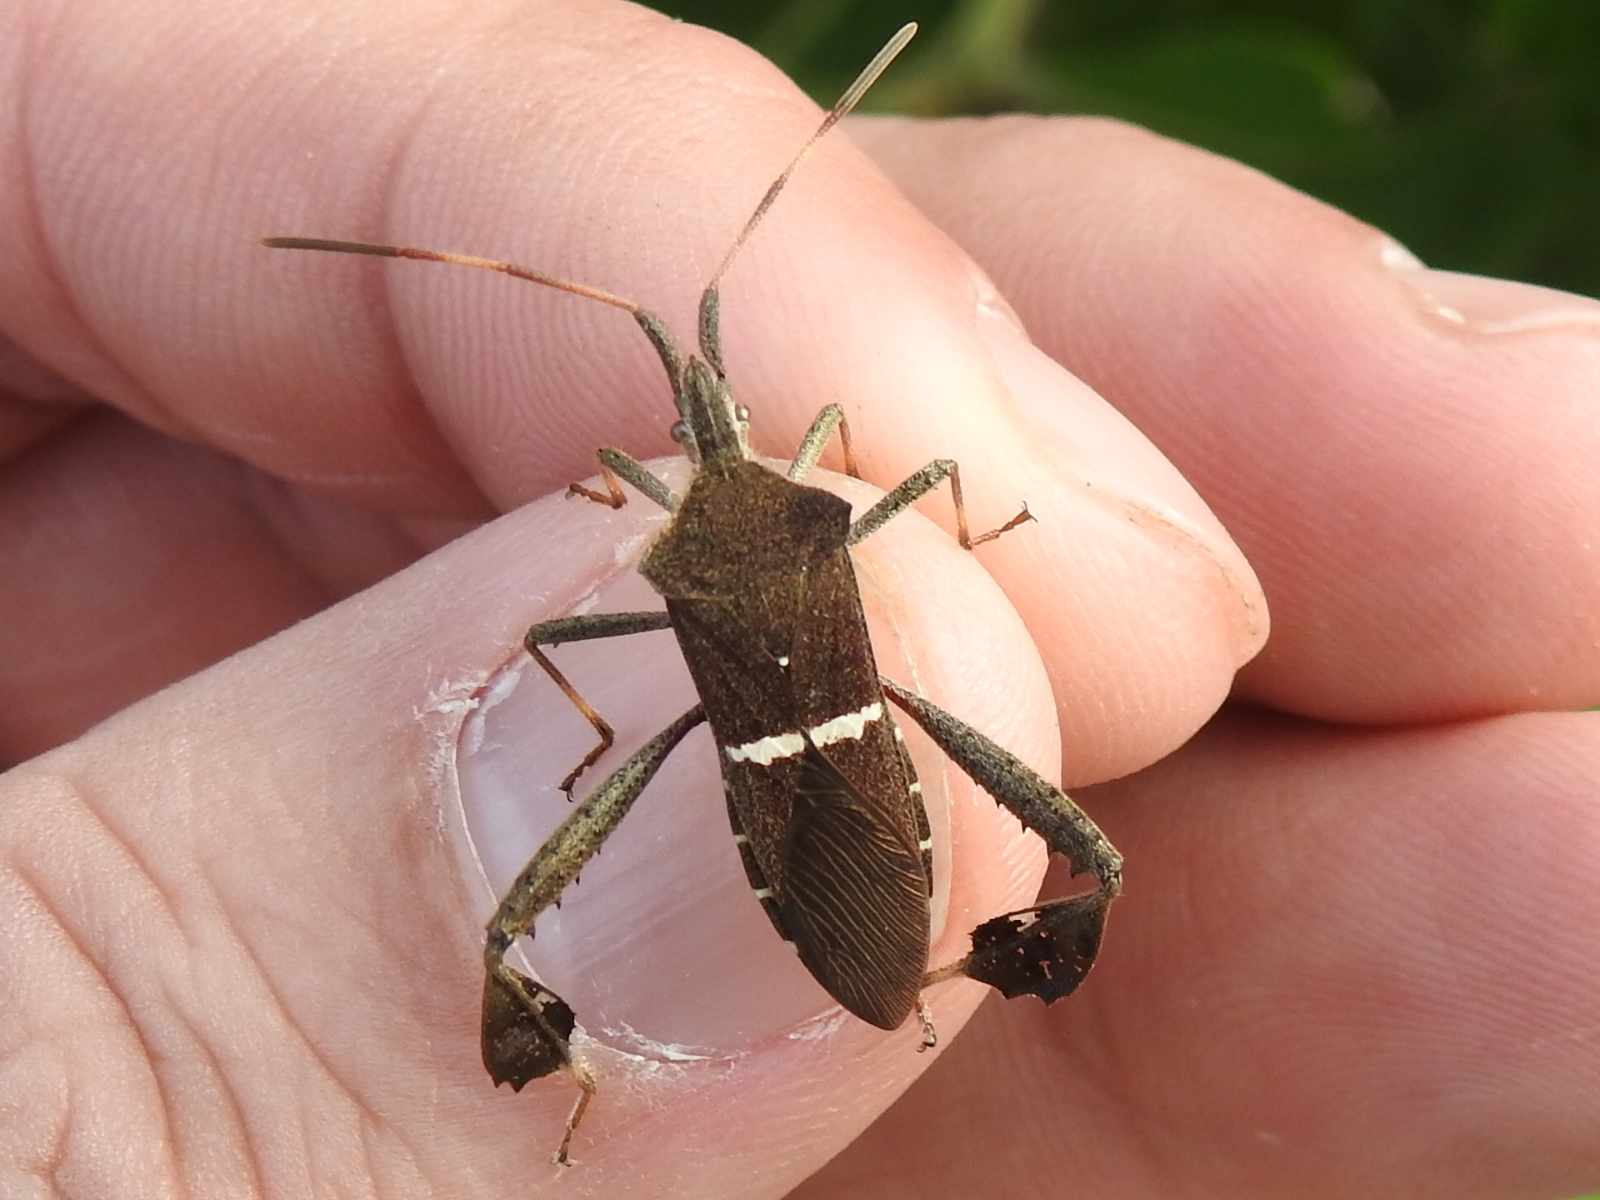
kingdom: Animalia
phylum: Arthropoda
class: Insecta
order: Hemiptera
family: Coreidae
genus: Leptoglossus
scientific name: Leptoglossus phyllopus
